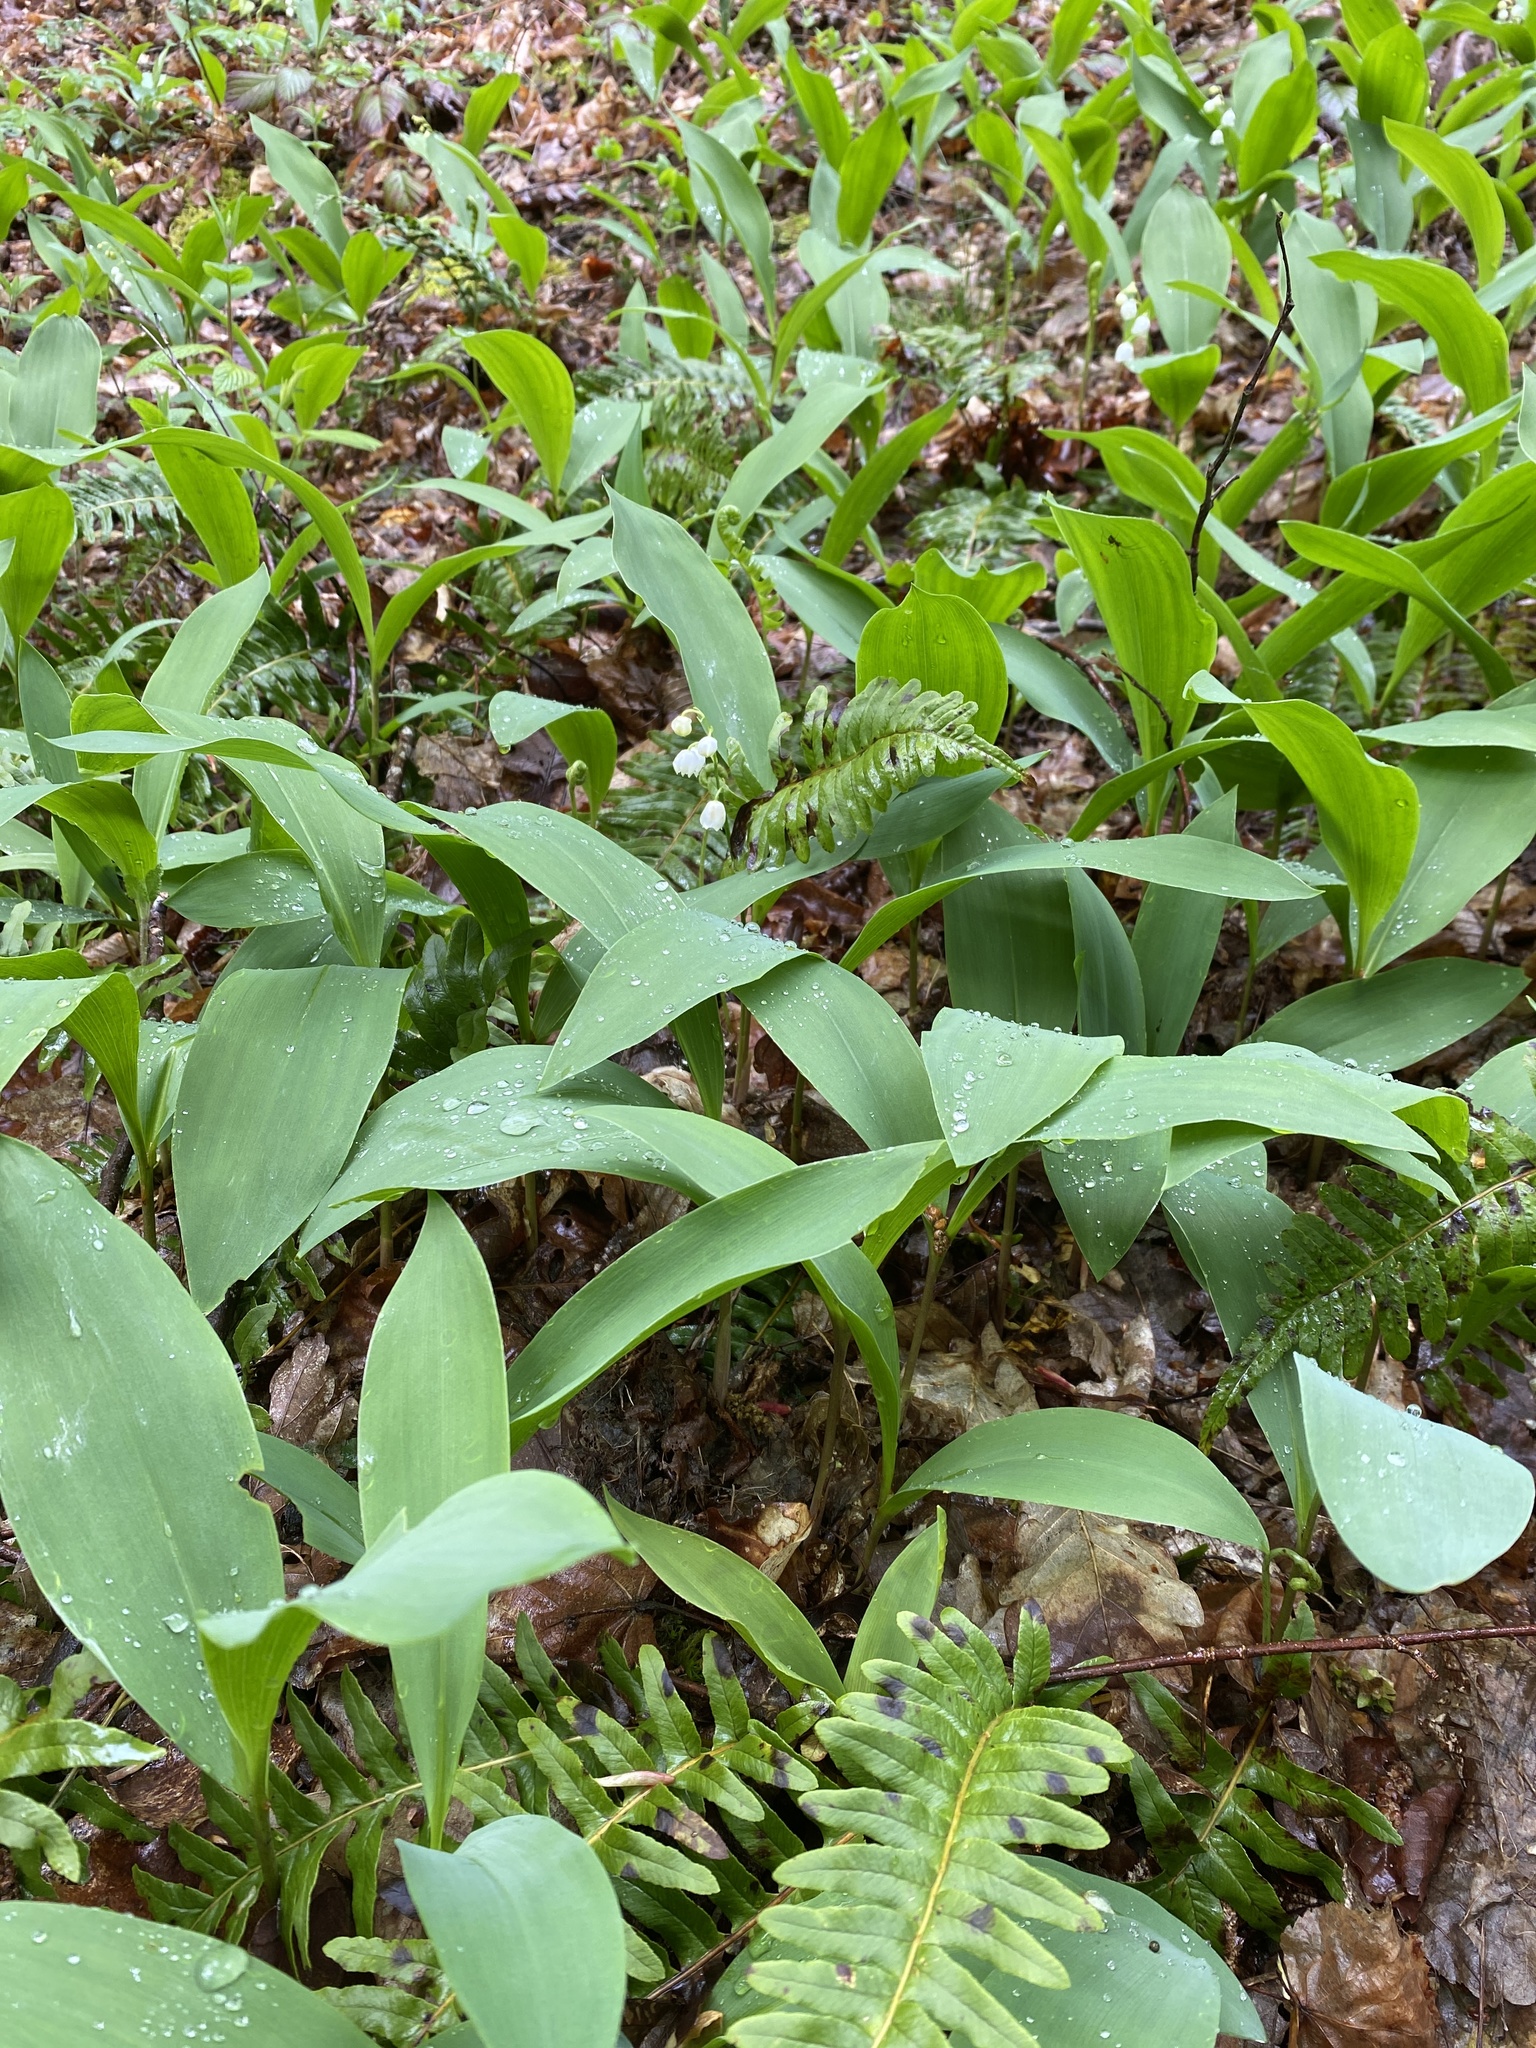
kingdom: Plantae
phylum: Tracheophyta
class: Liliopsida
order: Asparagales
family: Asparagaceae
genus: Convallaria
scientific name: Convallaria majalis
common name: Lily-of-the-valley
